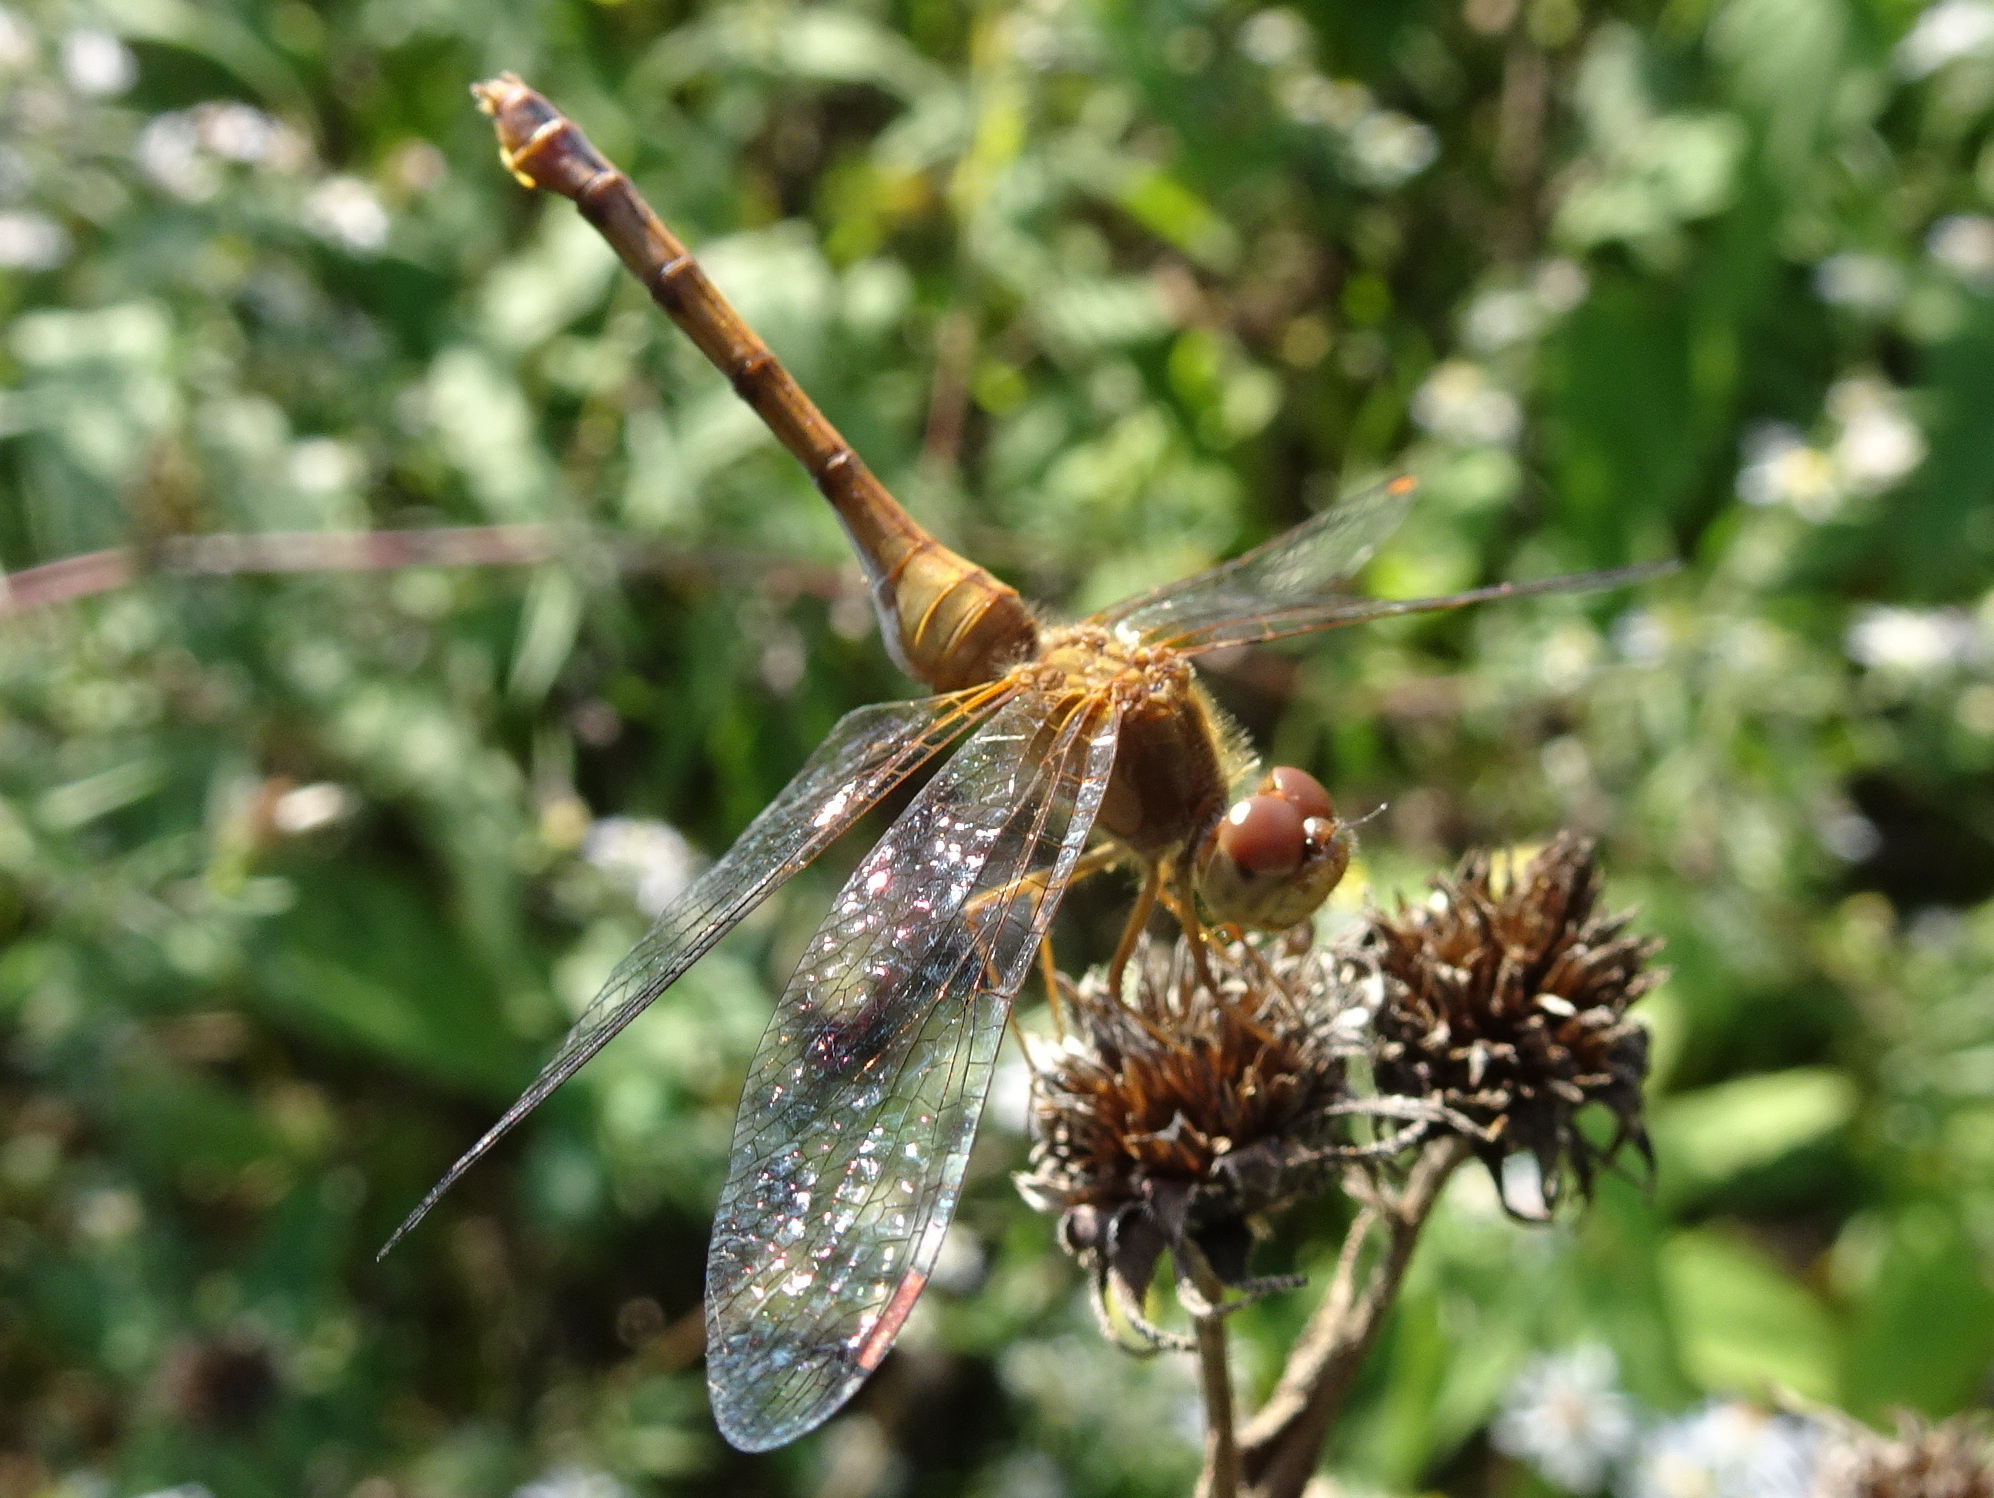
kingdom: Animalia
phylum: Arthropoda
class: Insecta
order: Odonata
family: Libellulidae
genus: Sympetrum
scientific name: Sympetrum vicinum
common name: Autumn meadowhawk
